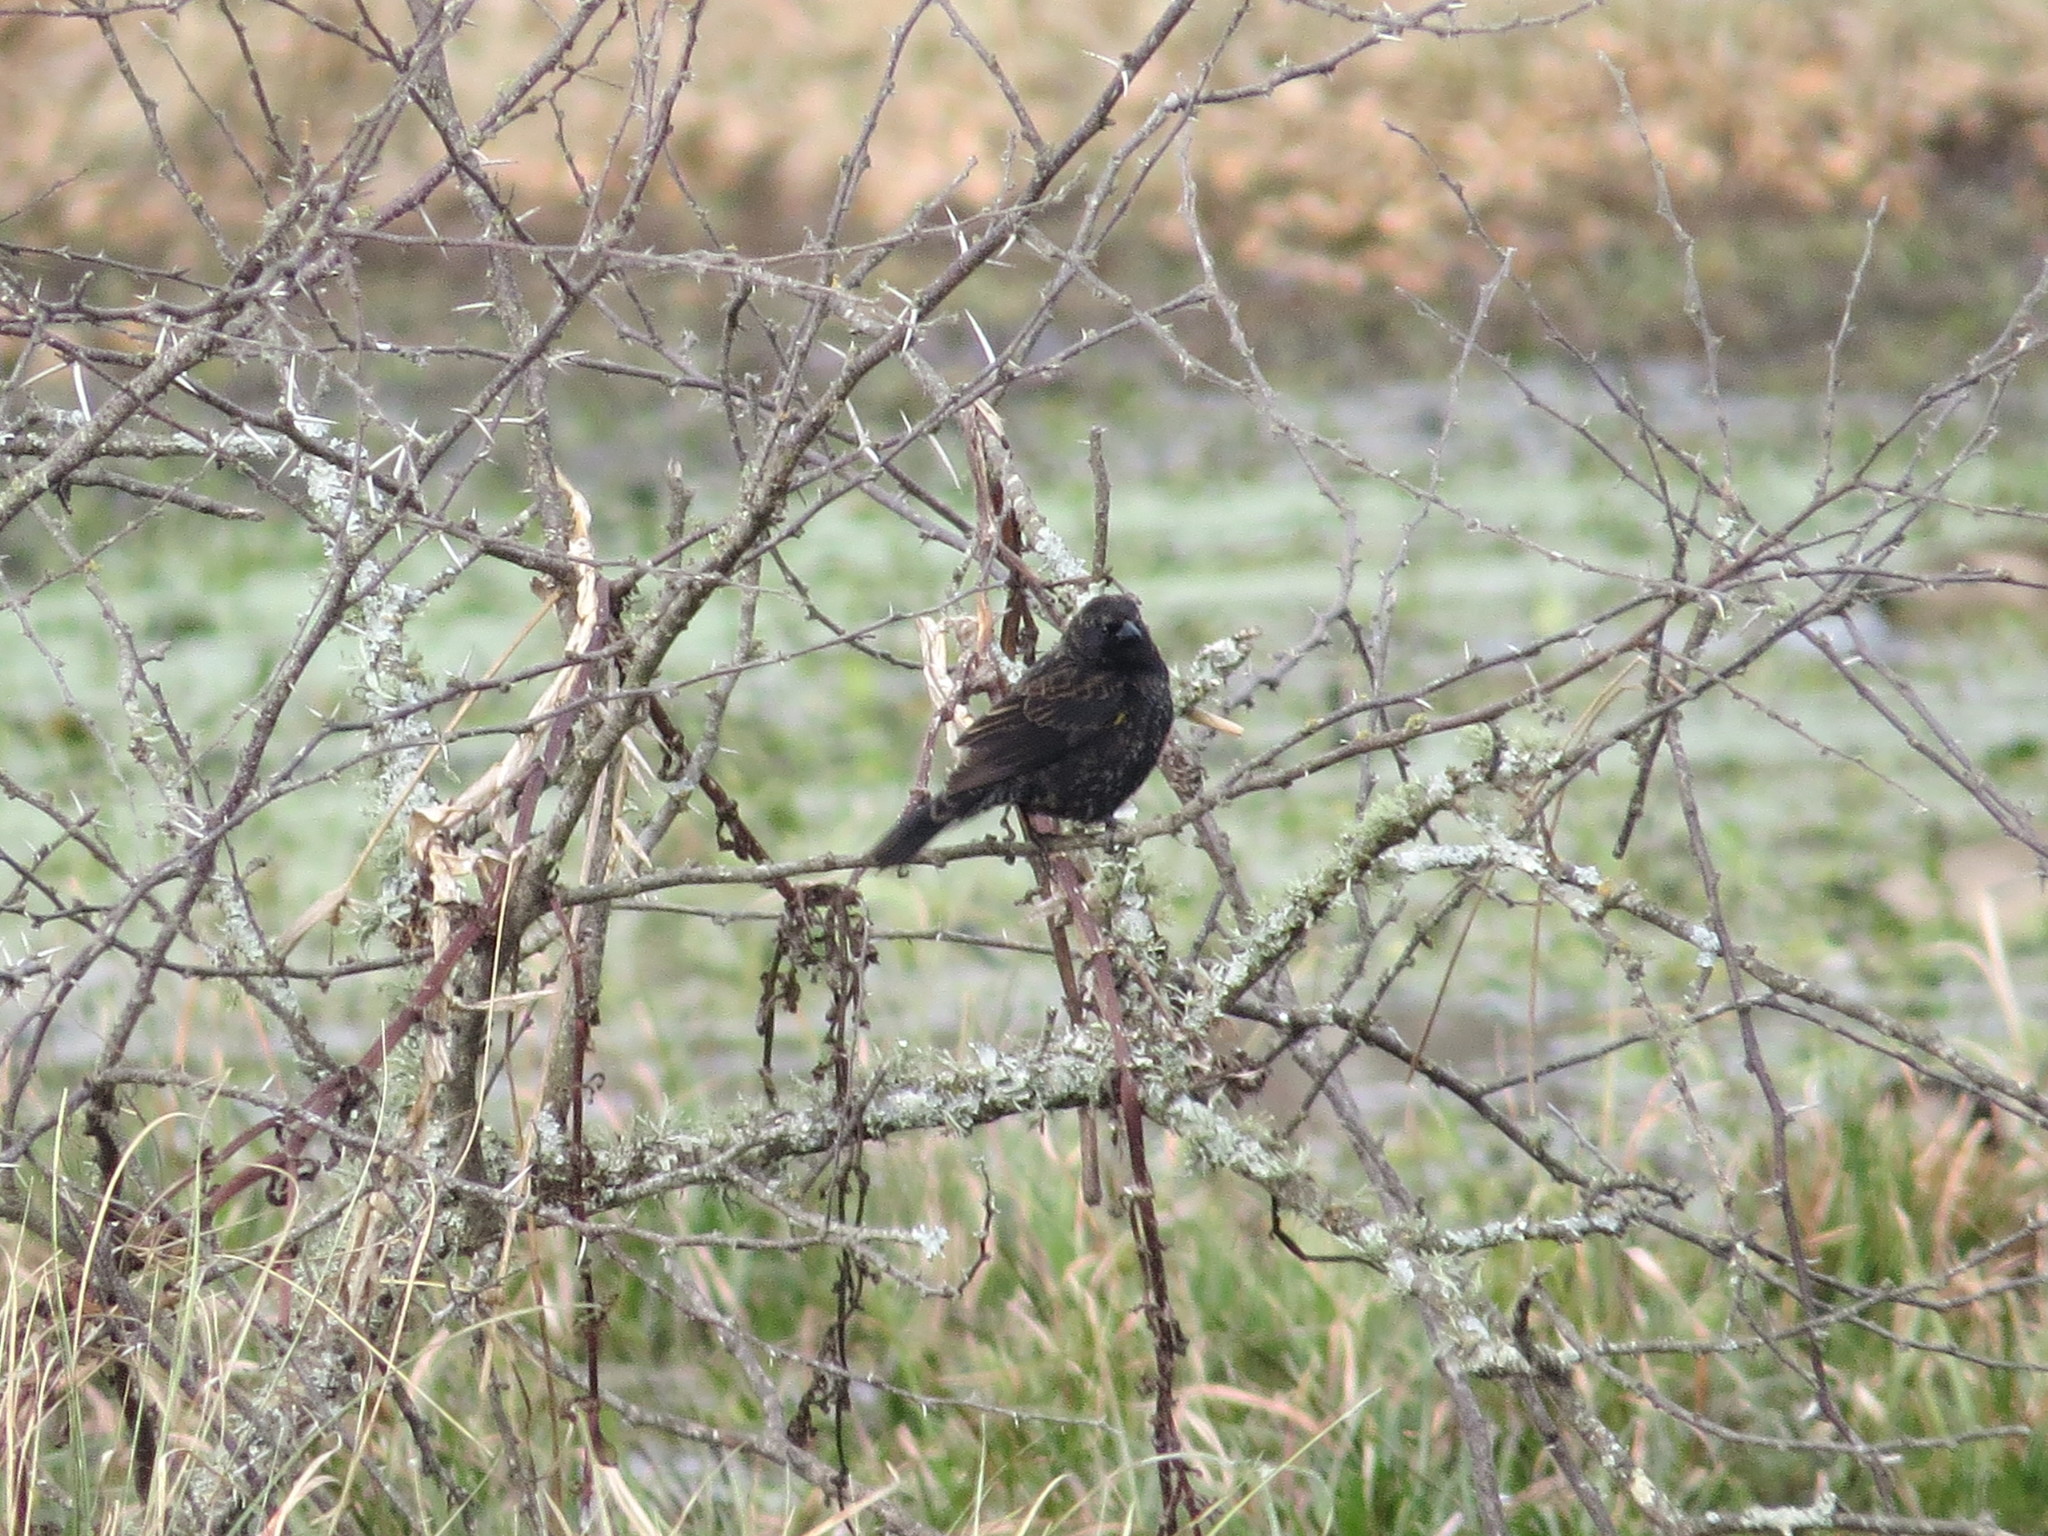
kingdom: Animalia
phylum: Chordata
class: Aves
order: Passeriformes
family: Icteridae
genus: Agelasticus
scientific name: Agelasticus thilius
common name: Yellow-winged blackbird
